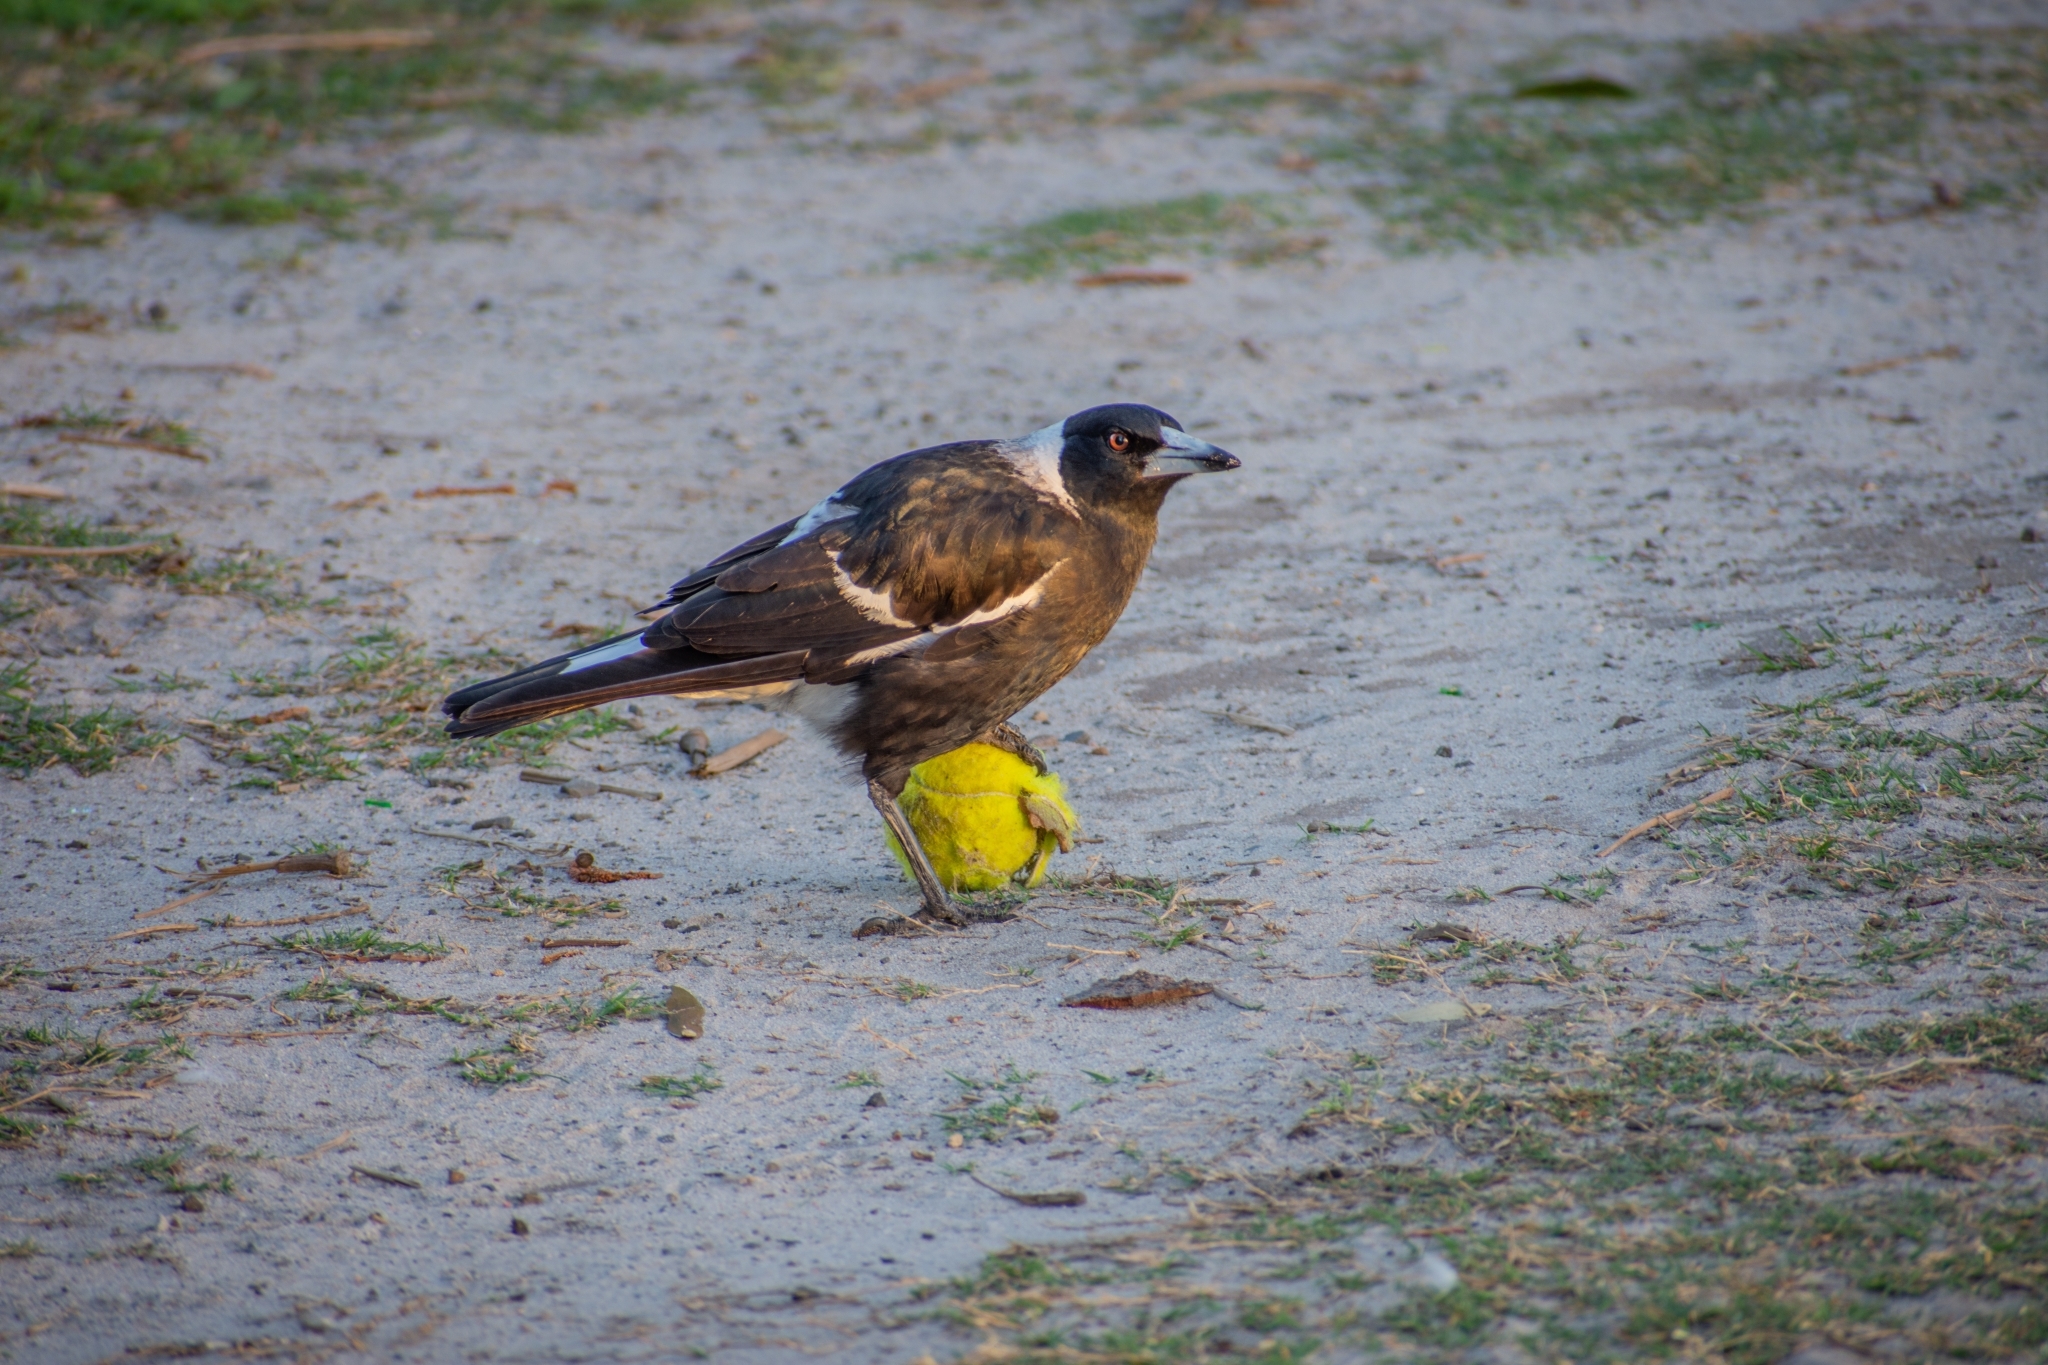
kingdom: Animalia
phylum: Chordata
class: Aves
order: Passeriformes
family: Cracticidae
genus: Gymnorhina
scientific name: Gymnorhina tibicen
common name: Australian magpie
